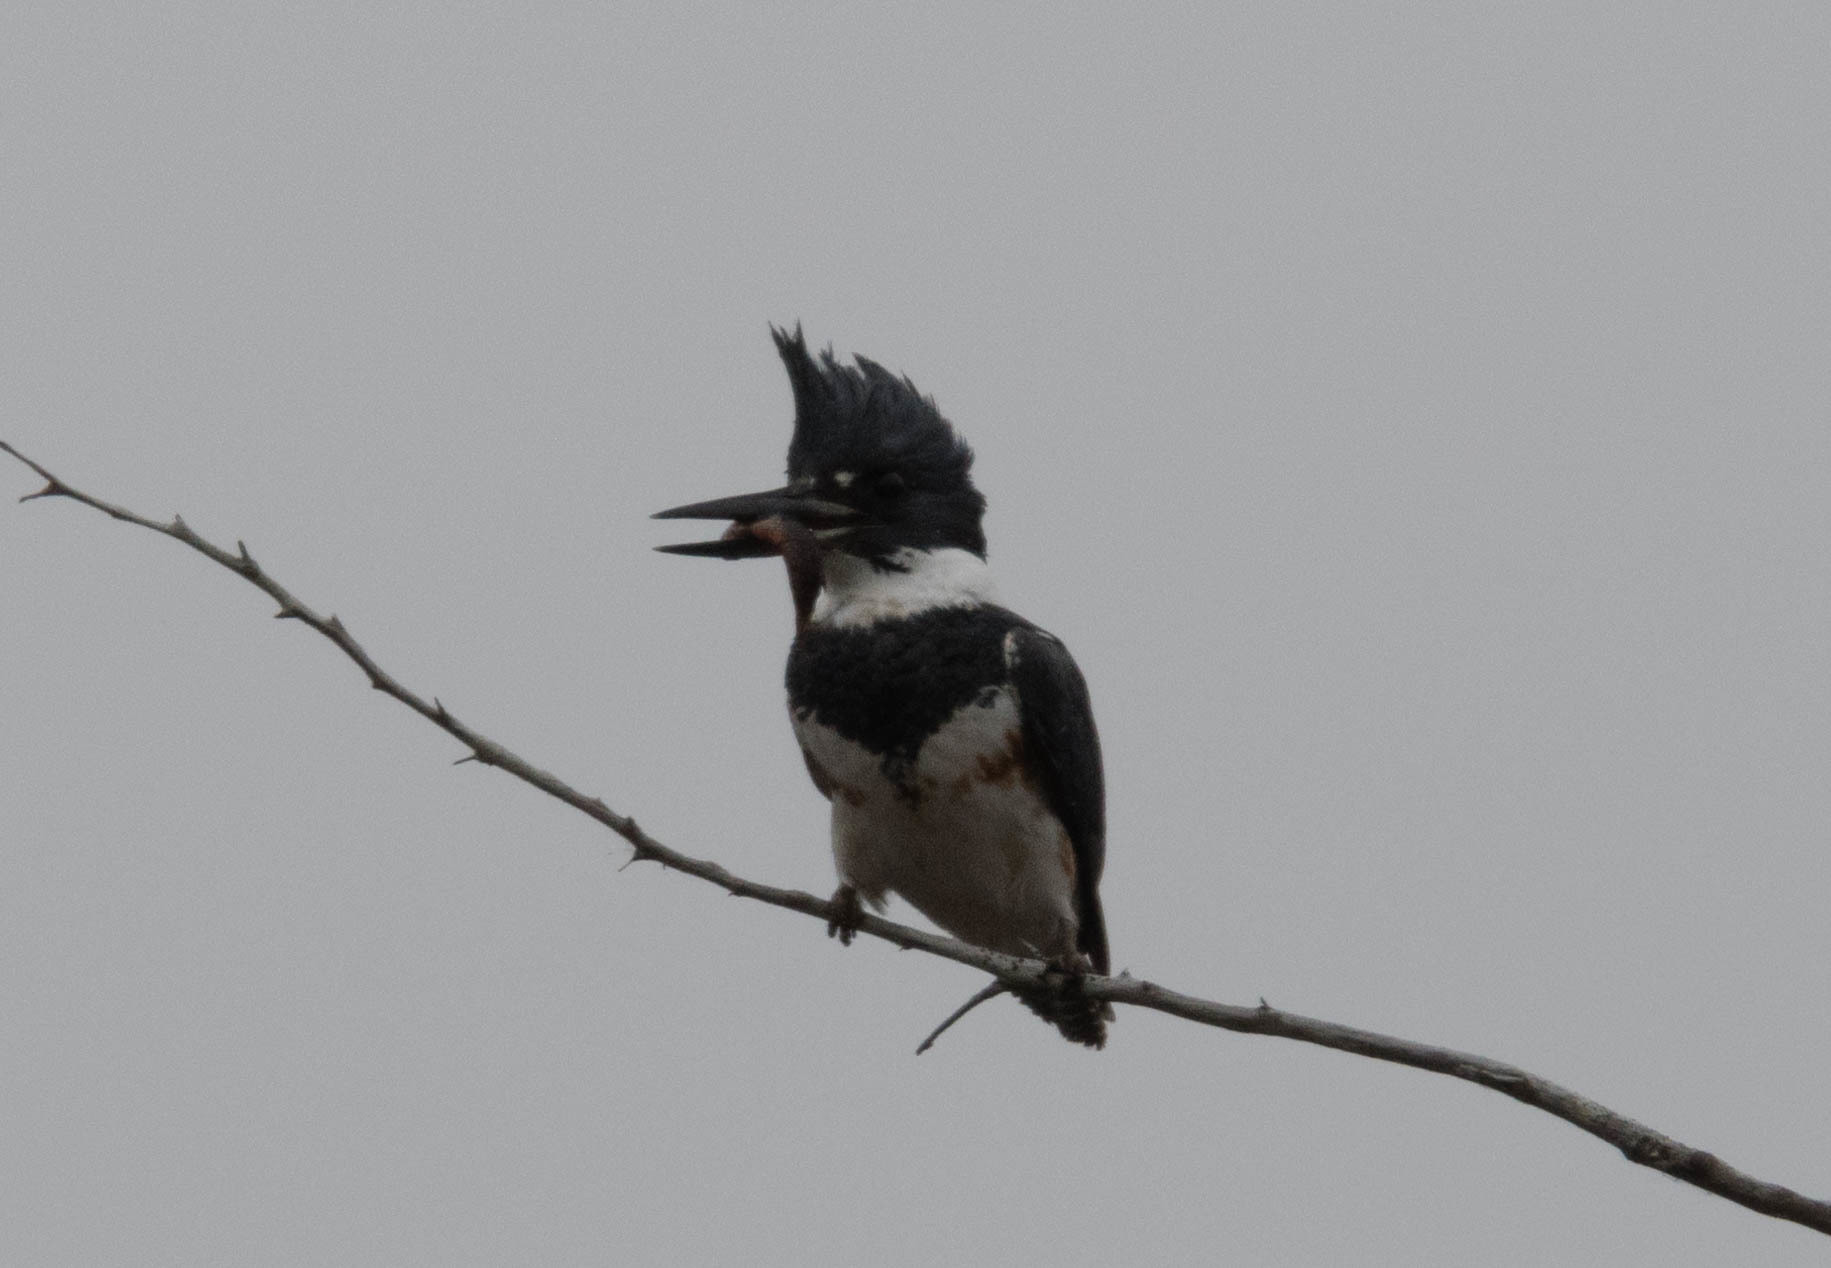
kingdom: Animalia
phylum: Chordata
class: Aves
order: Coraciiformes
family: Alcedinidae
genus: Megaceryle
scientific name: Megaceryle alcyon
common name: Belted kingfisher
